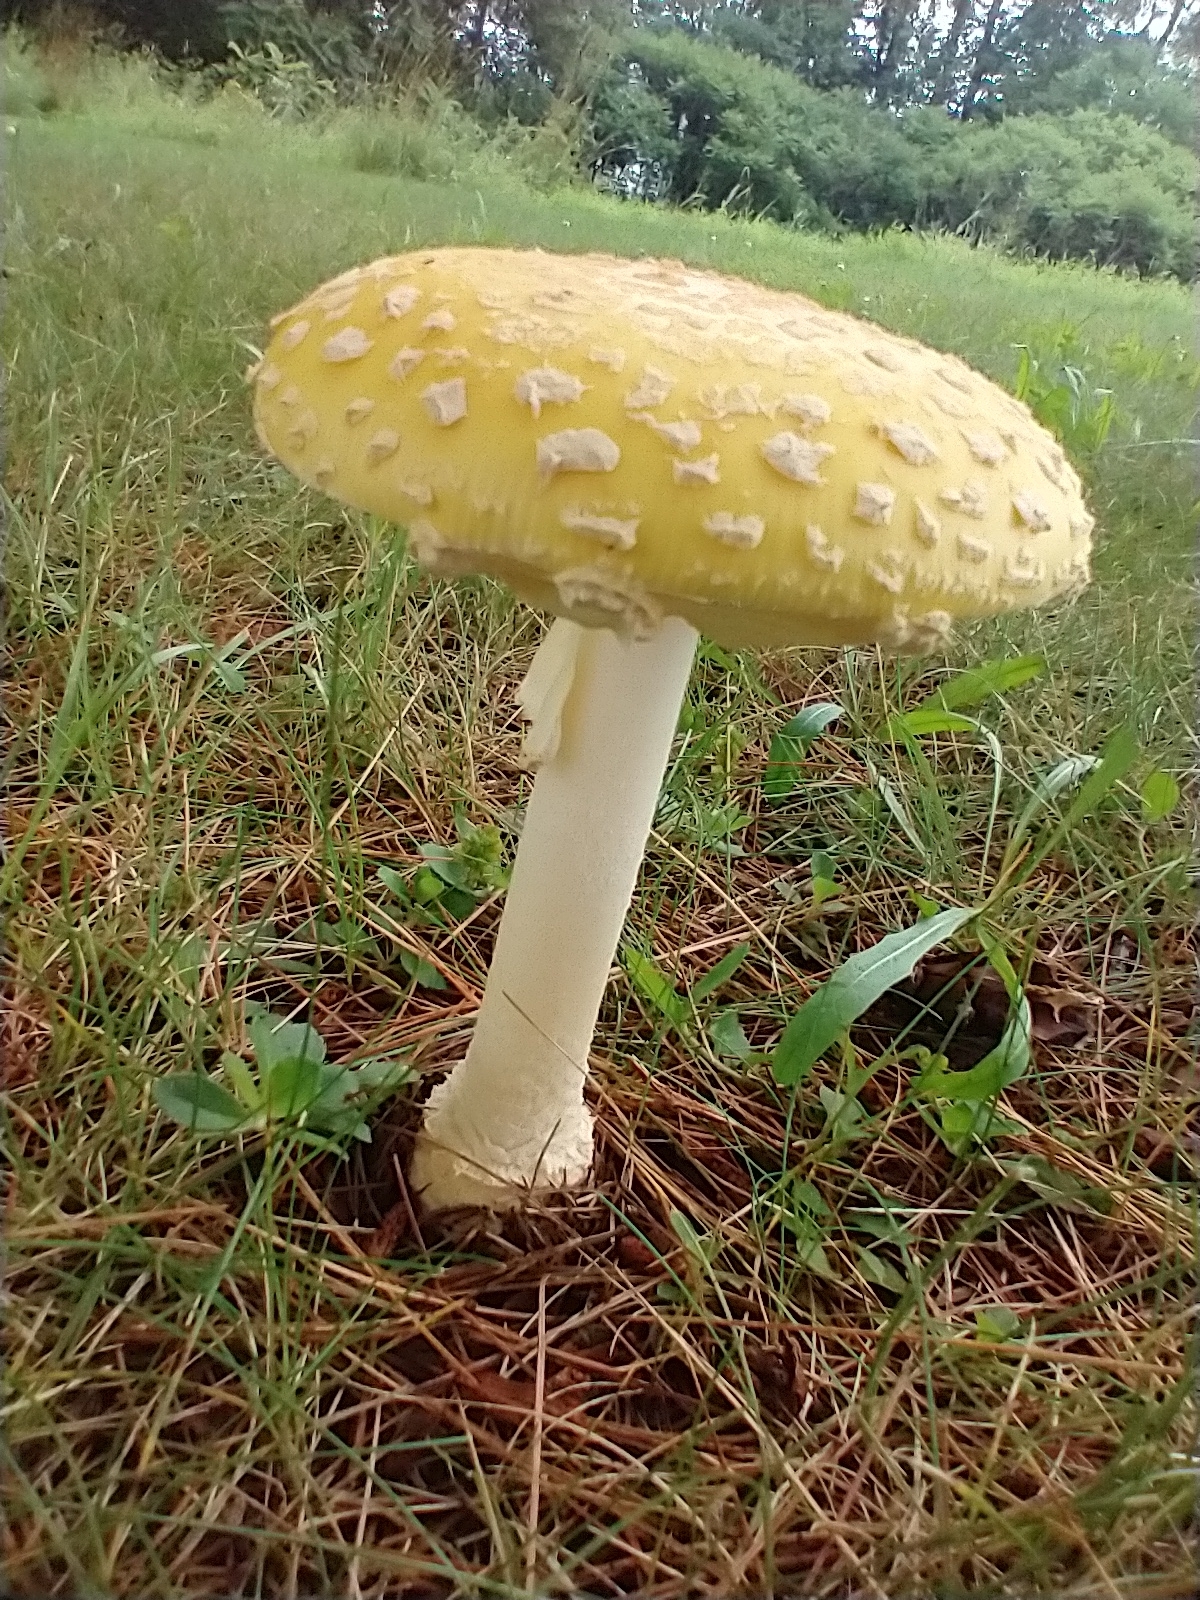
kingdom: Fungi
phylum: Basidiomycota
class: Agaricomycetes
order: Agaricales
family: Amanitaceae
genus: Amanita
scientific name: Amanita muscaria
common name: Fly agaric
